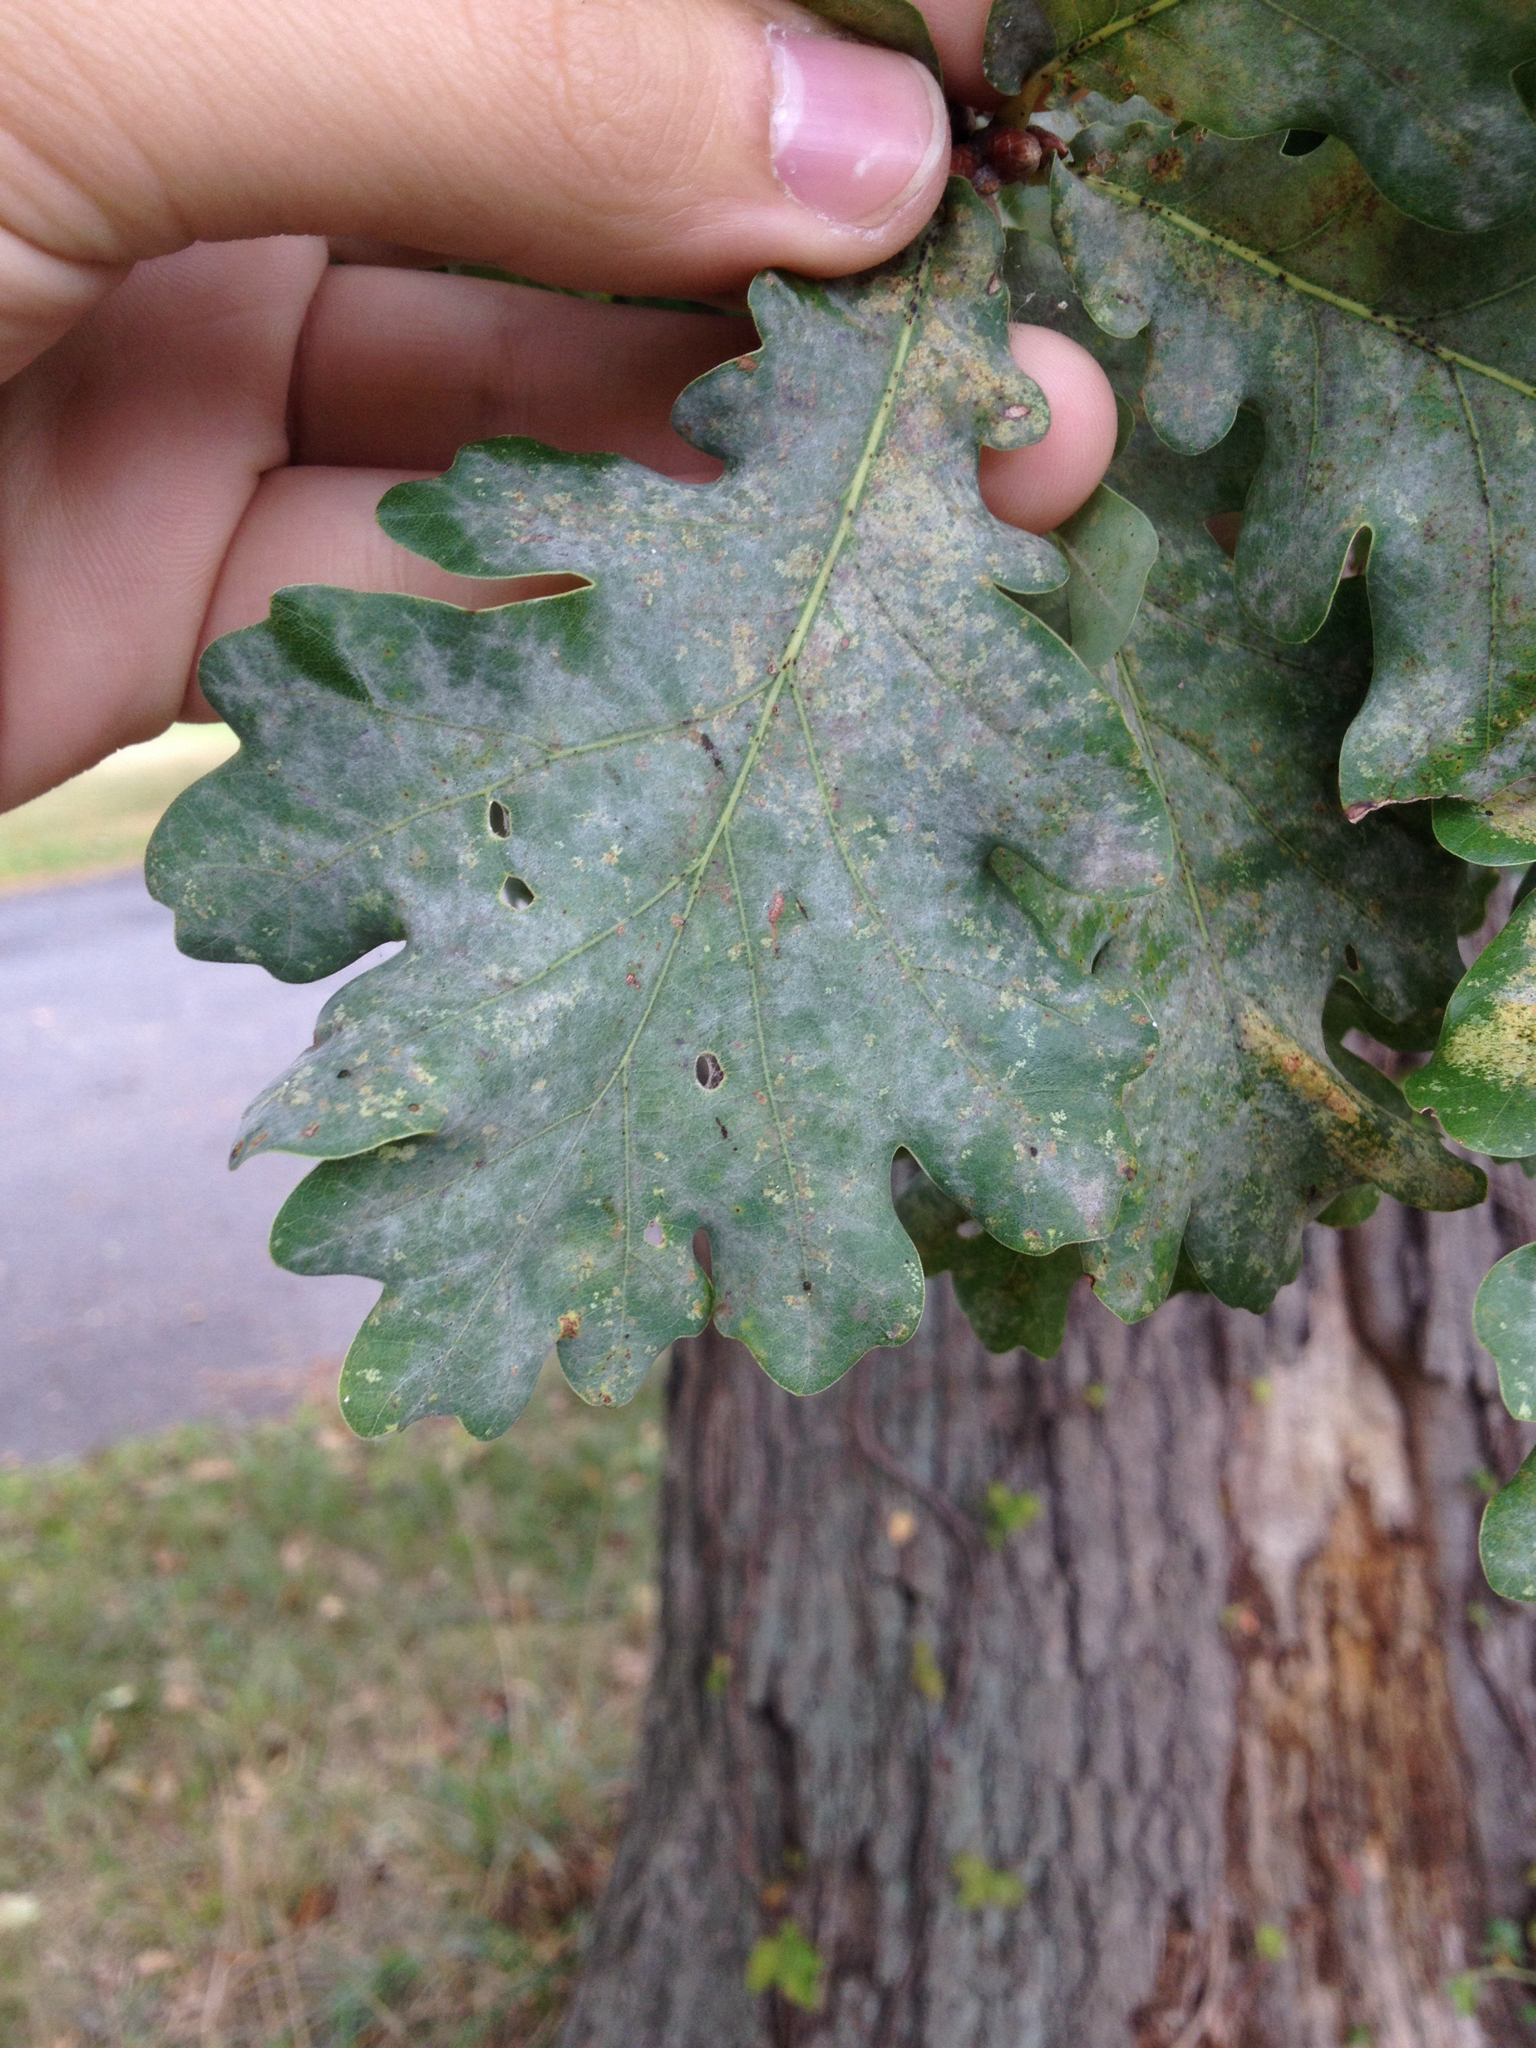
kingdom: Plantae
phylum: Tracheophyta
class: Magnoliopsida
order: Fagales
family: Fagaceae
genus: Quercus
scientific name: Quercus robur
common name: Pedunculate oak
